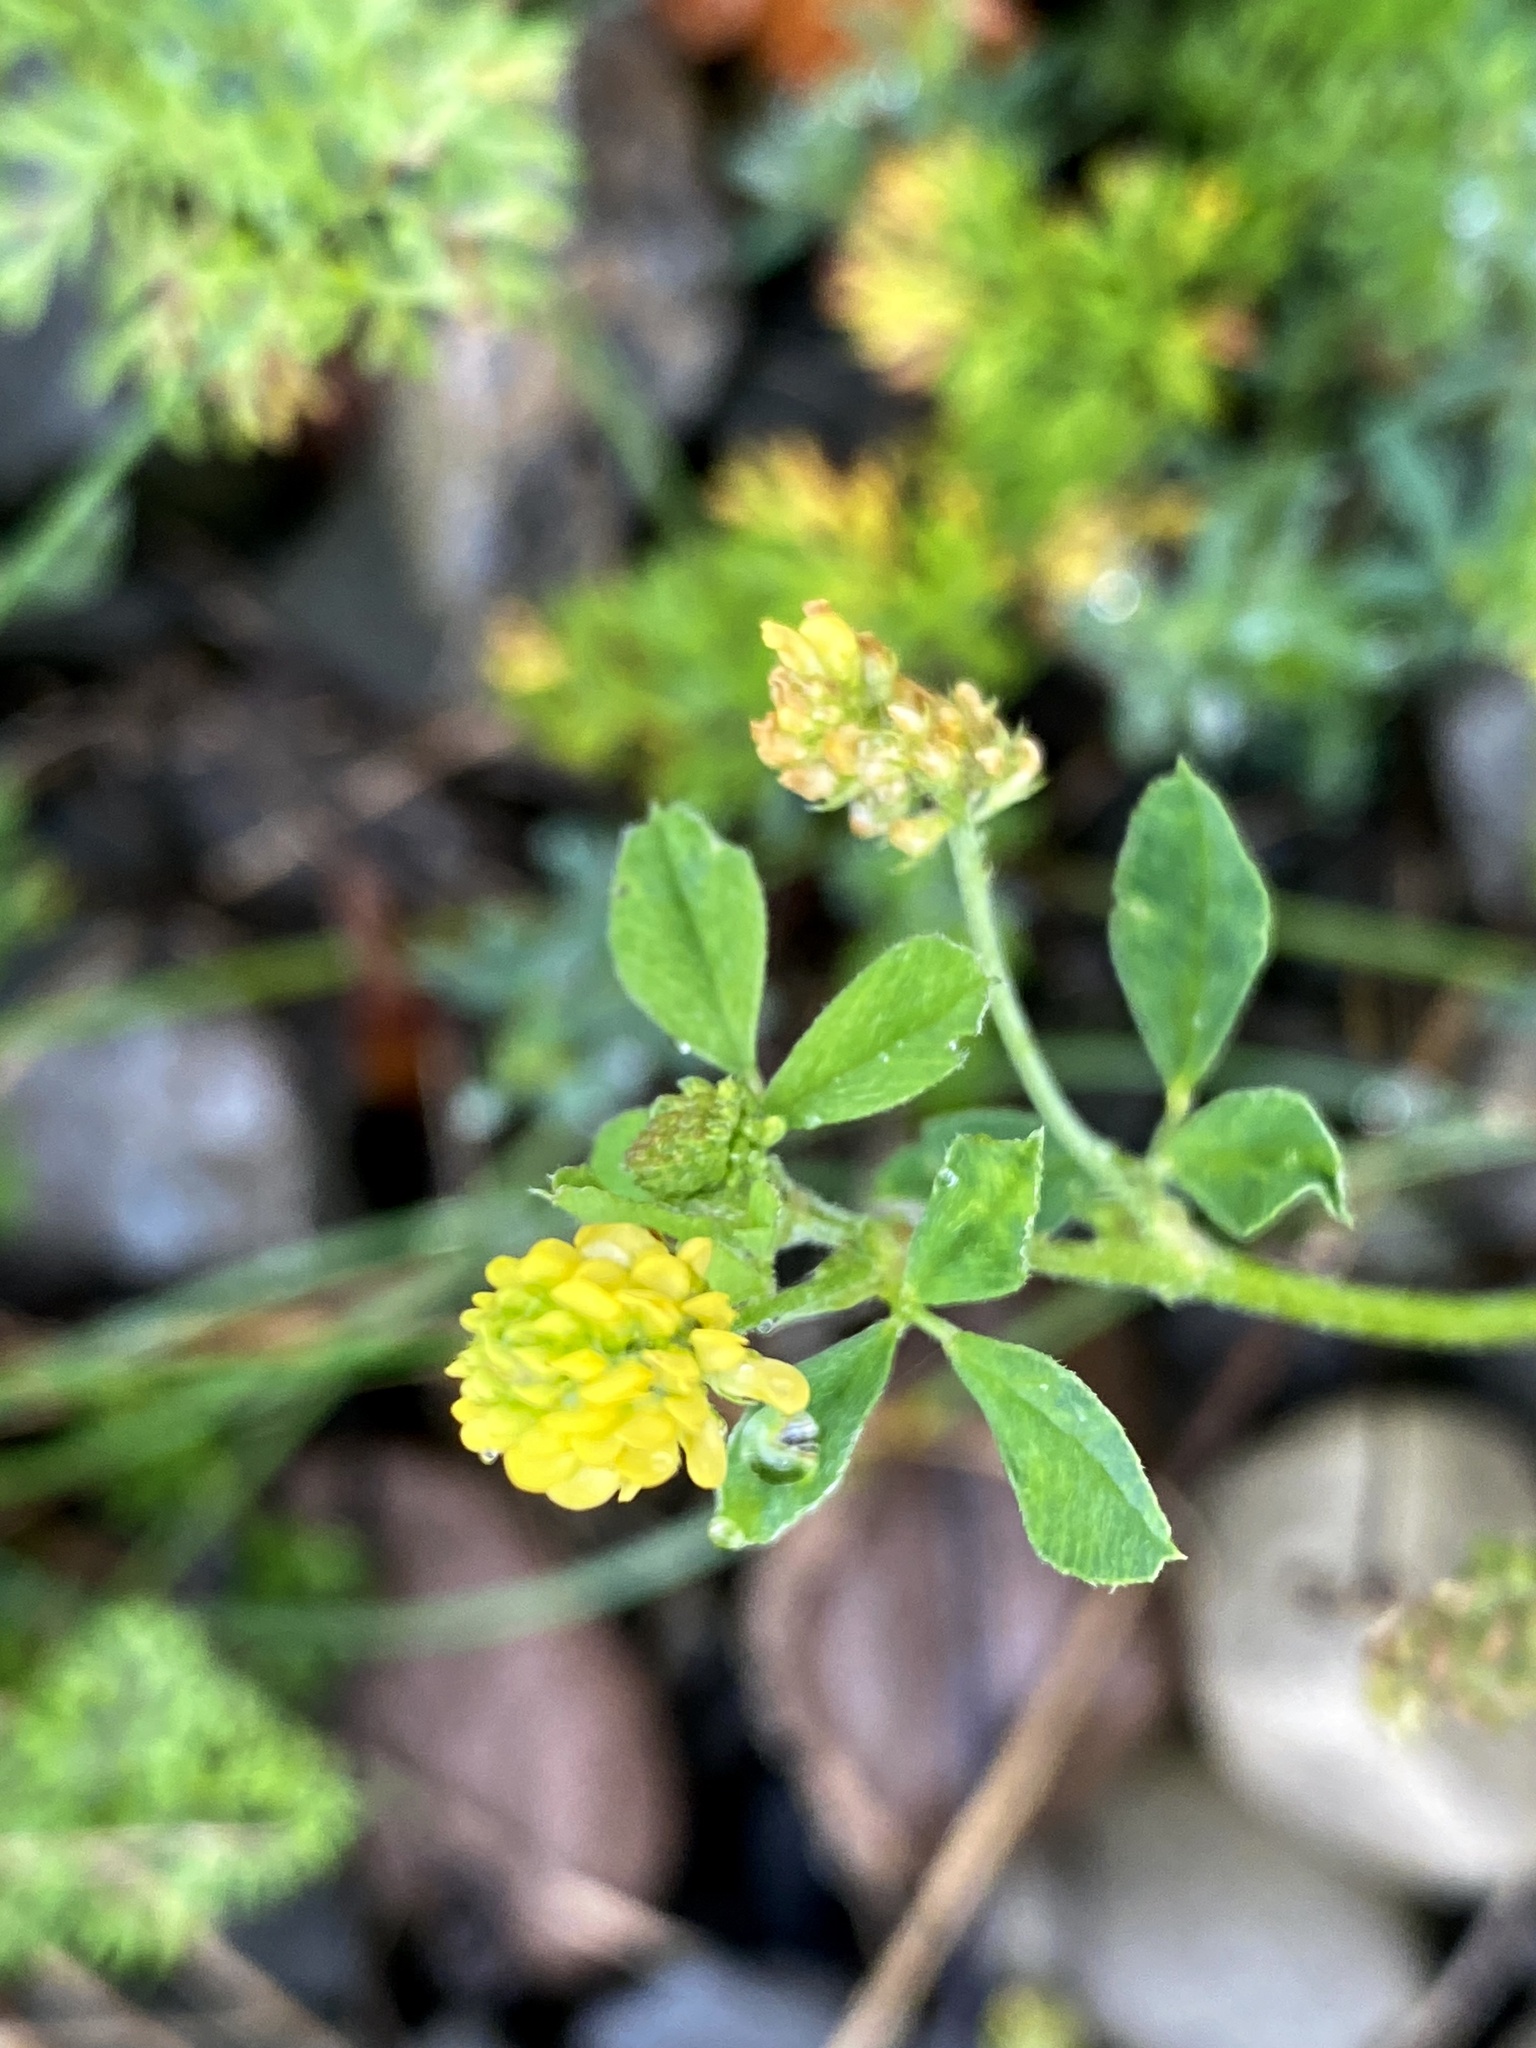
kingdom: Plantae
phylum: Tracheophyta
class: Magnoliopsida
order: Fabales
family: Fabaceae
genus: Medicago
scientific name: Medicago lupulina
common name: Black medick
